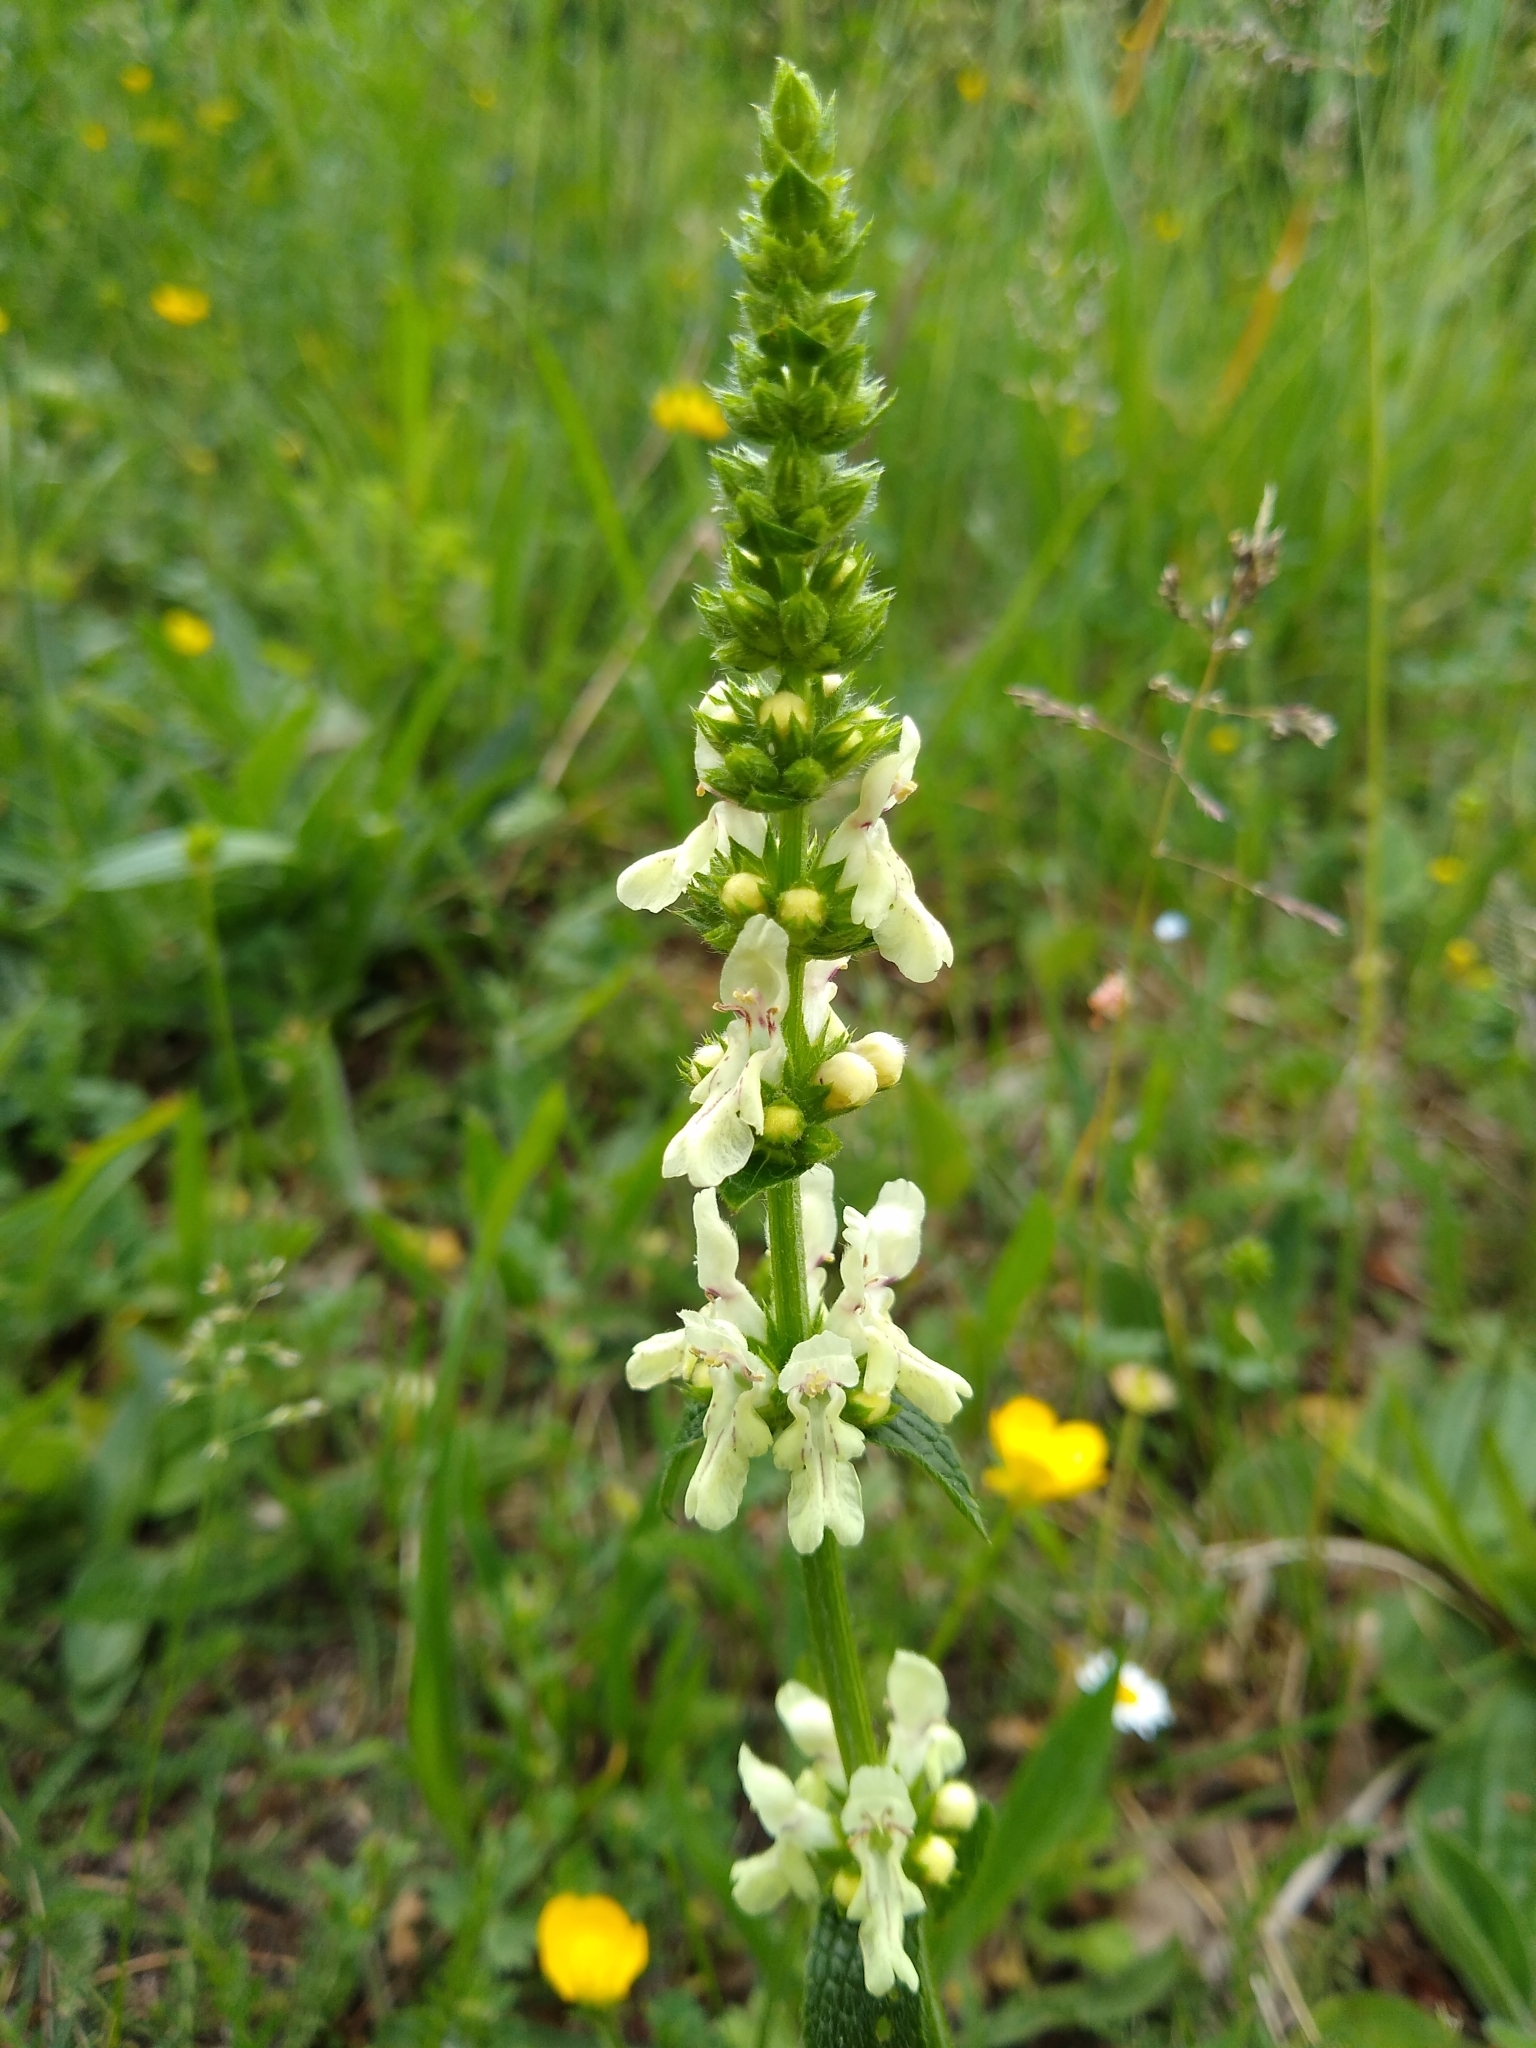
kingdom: Plantae
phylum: Tracheophyta
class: Magnoliopsida
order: Lamiales
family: Lamiaceae
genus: Stachys
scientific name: Stachys recta
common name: Perennial yellow-woundwort
